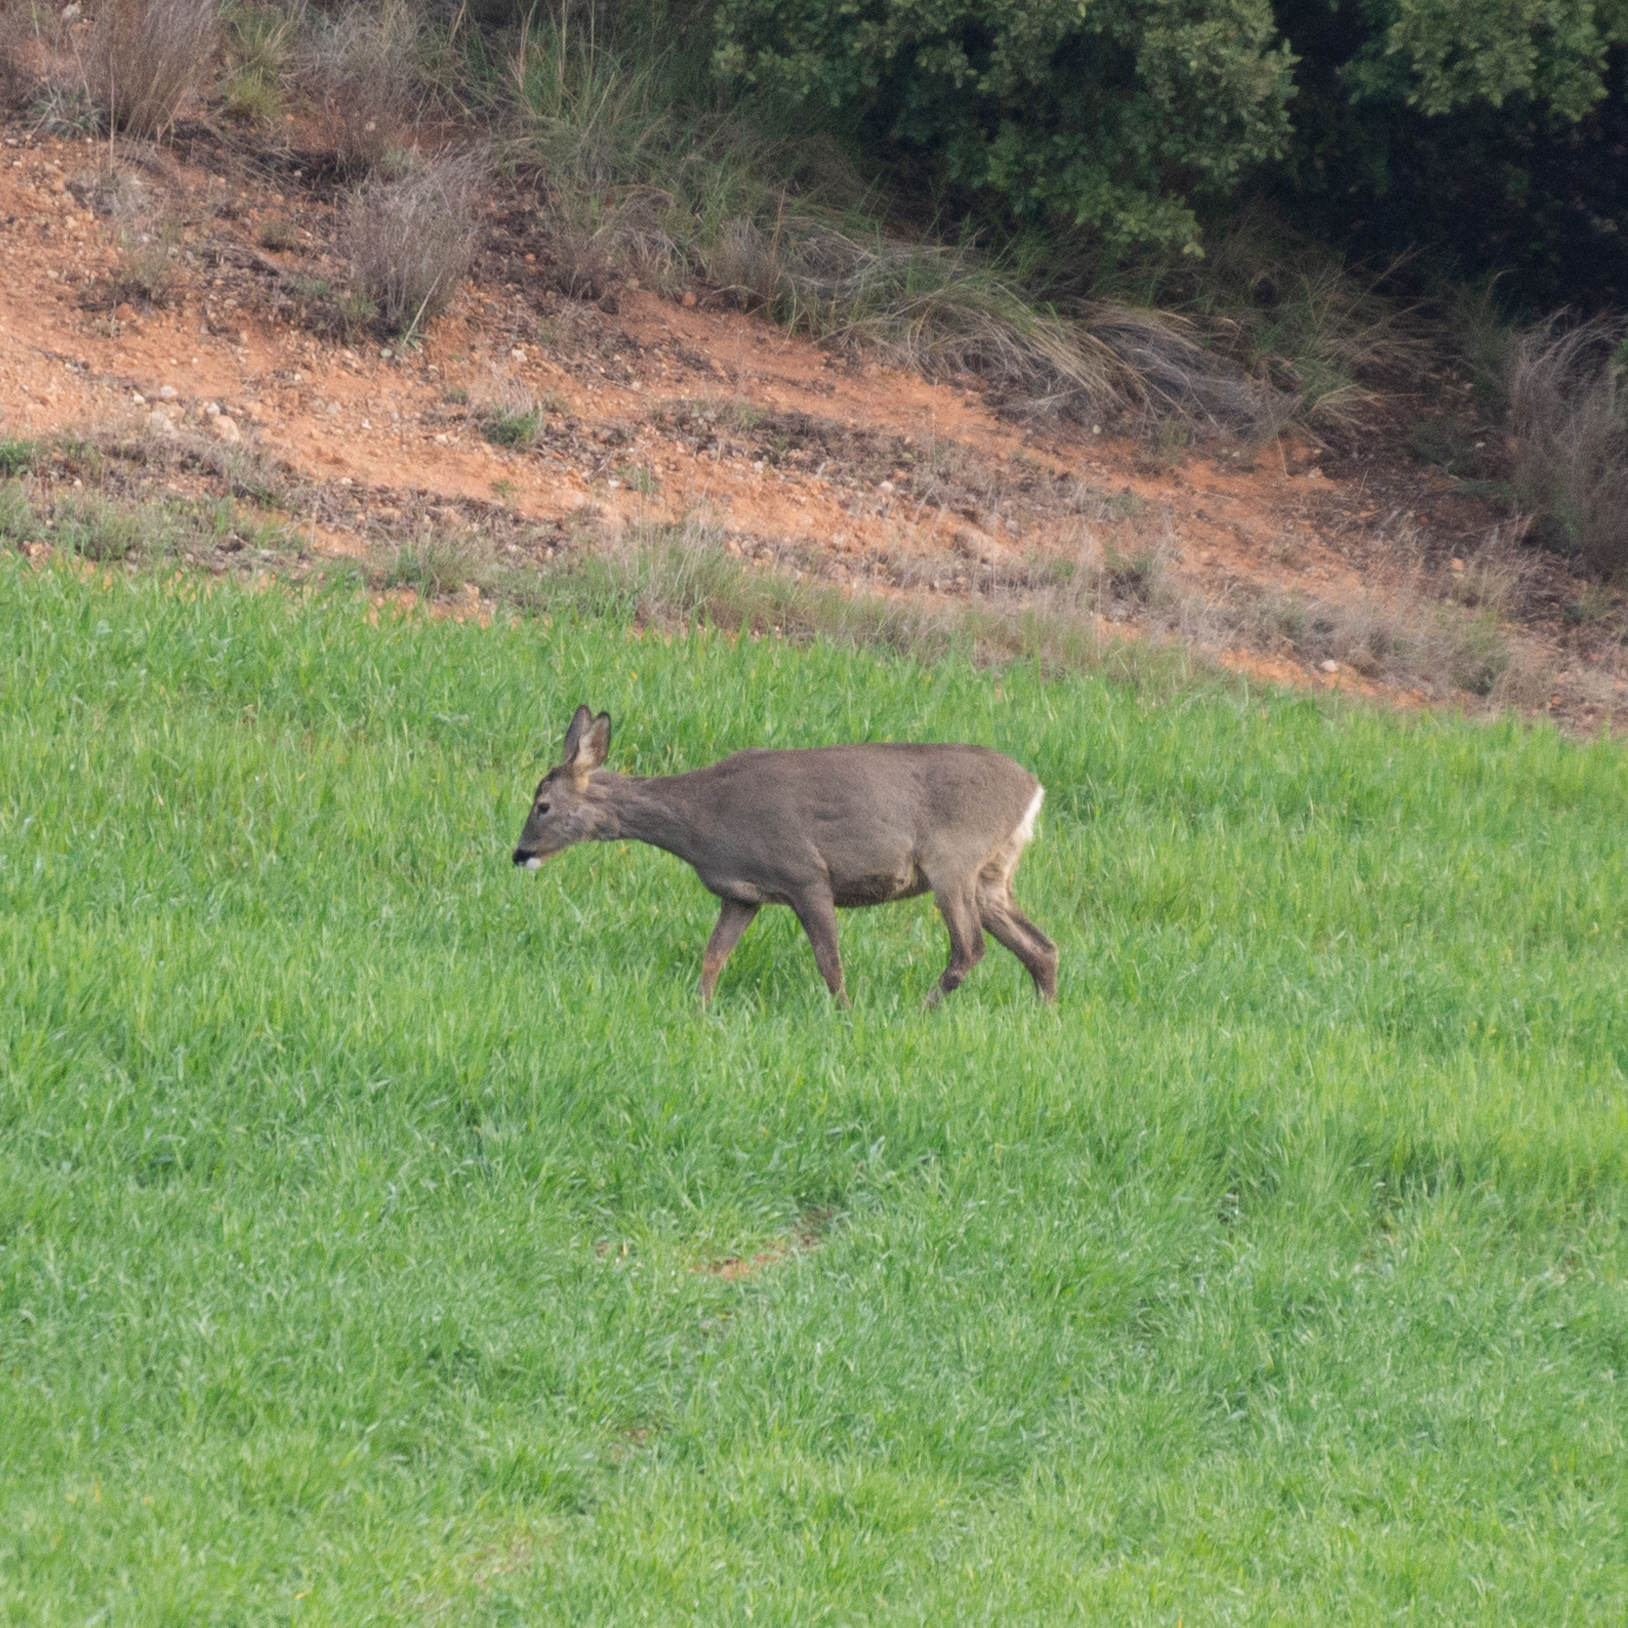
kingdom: Animalia
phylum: Chordata
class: Mammalia
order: Artiodactyla
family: Cervidae
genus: Capreolus
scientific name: Capreolus capreolus
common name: Western roe deer
